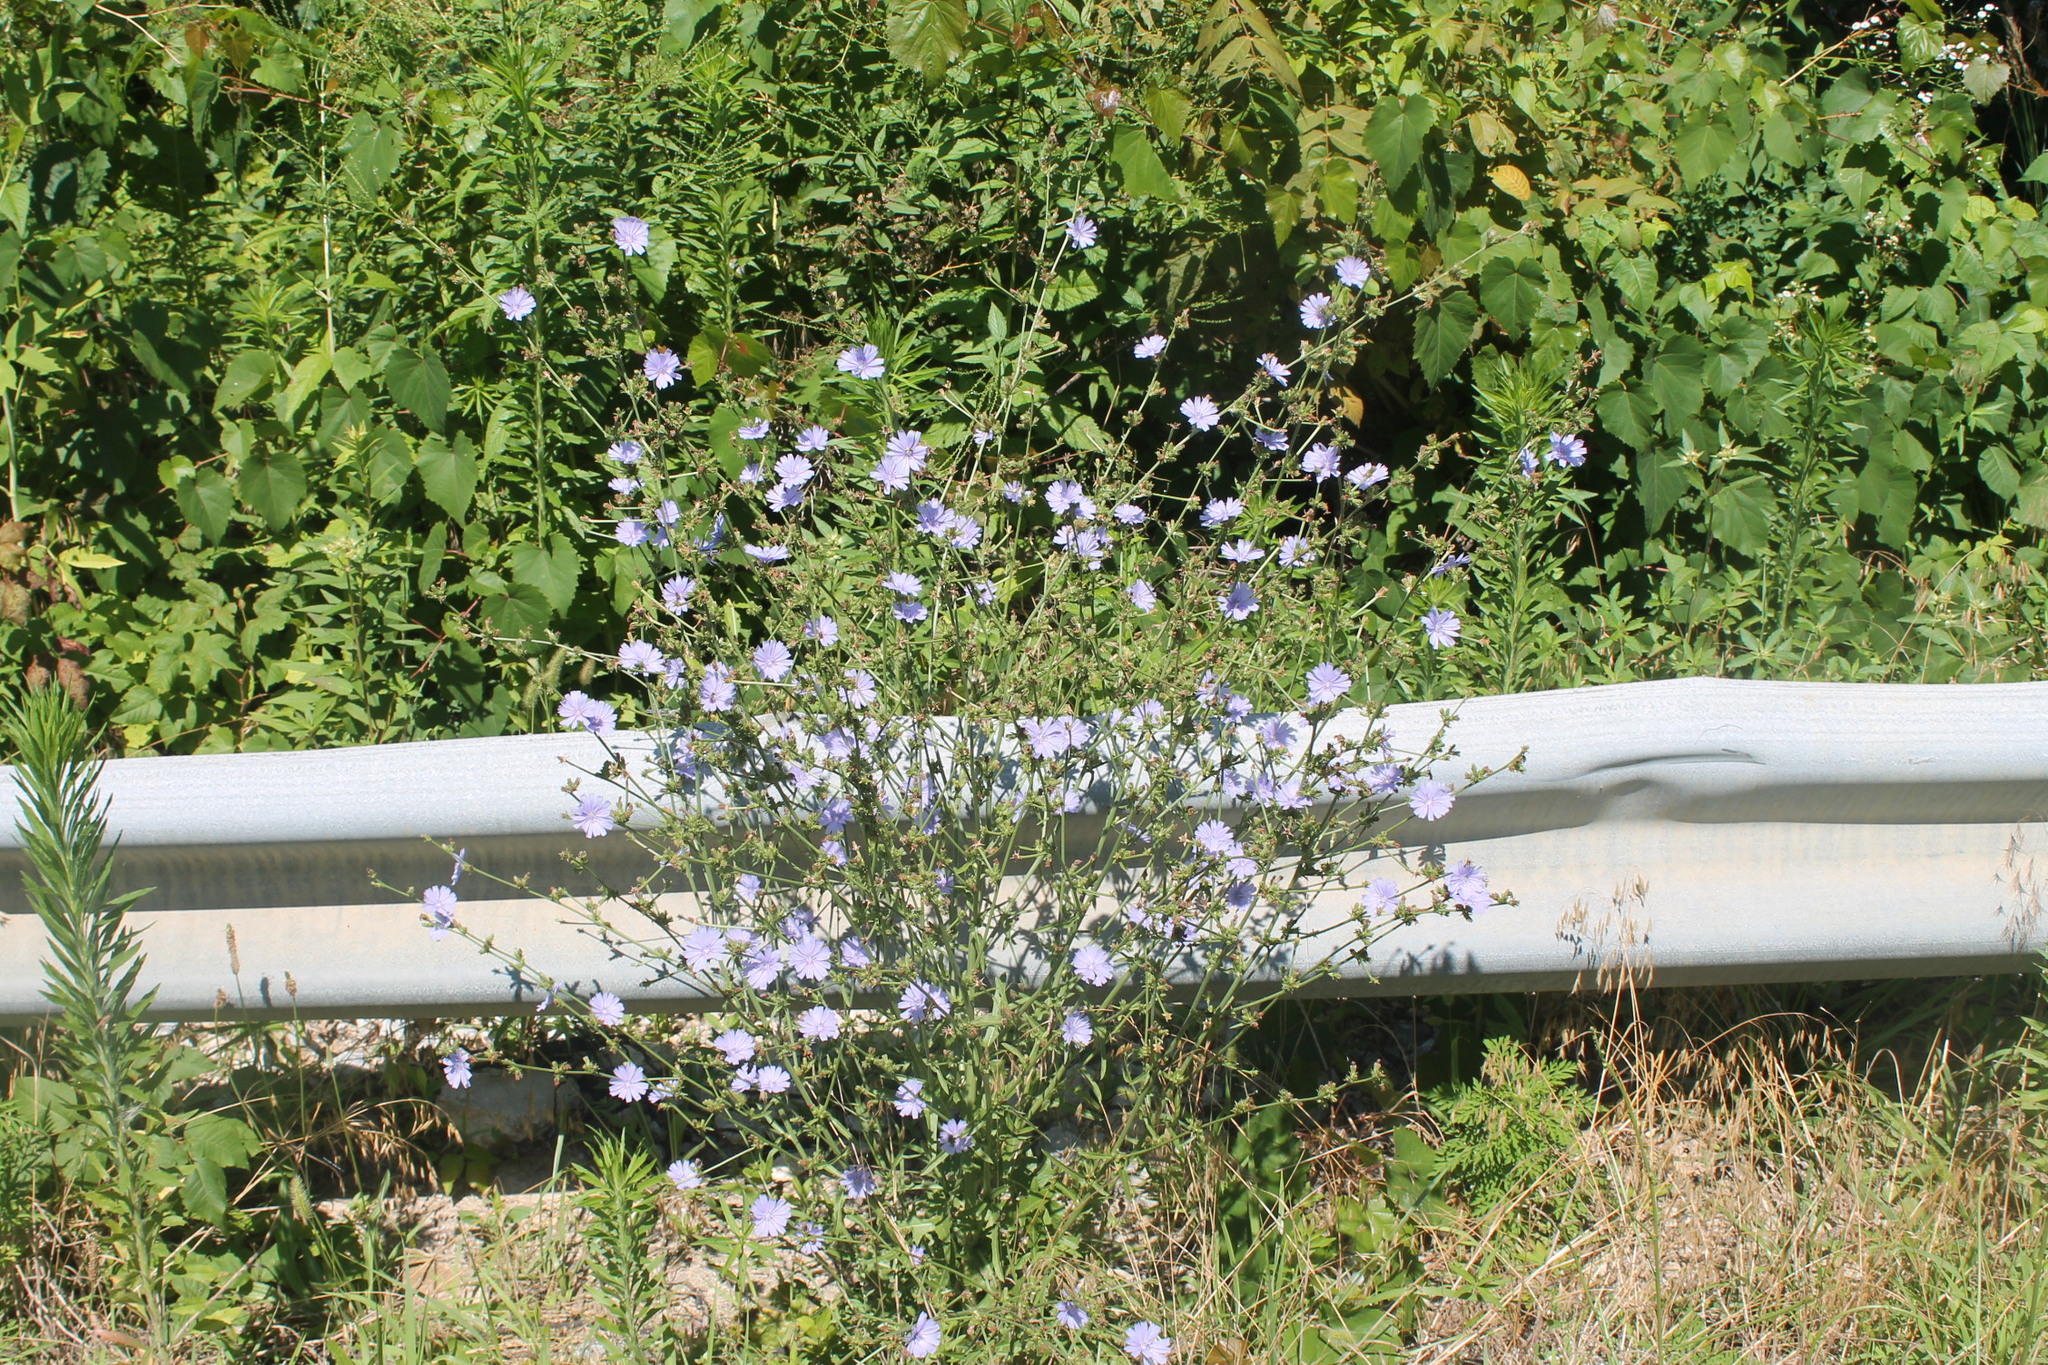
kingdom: Plantae
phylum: Tracheophyta
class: Magnoliopsida
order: Asterales
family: Asteraceae
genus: Cichorium
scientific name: Cichorium intybus
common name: Chicory
